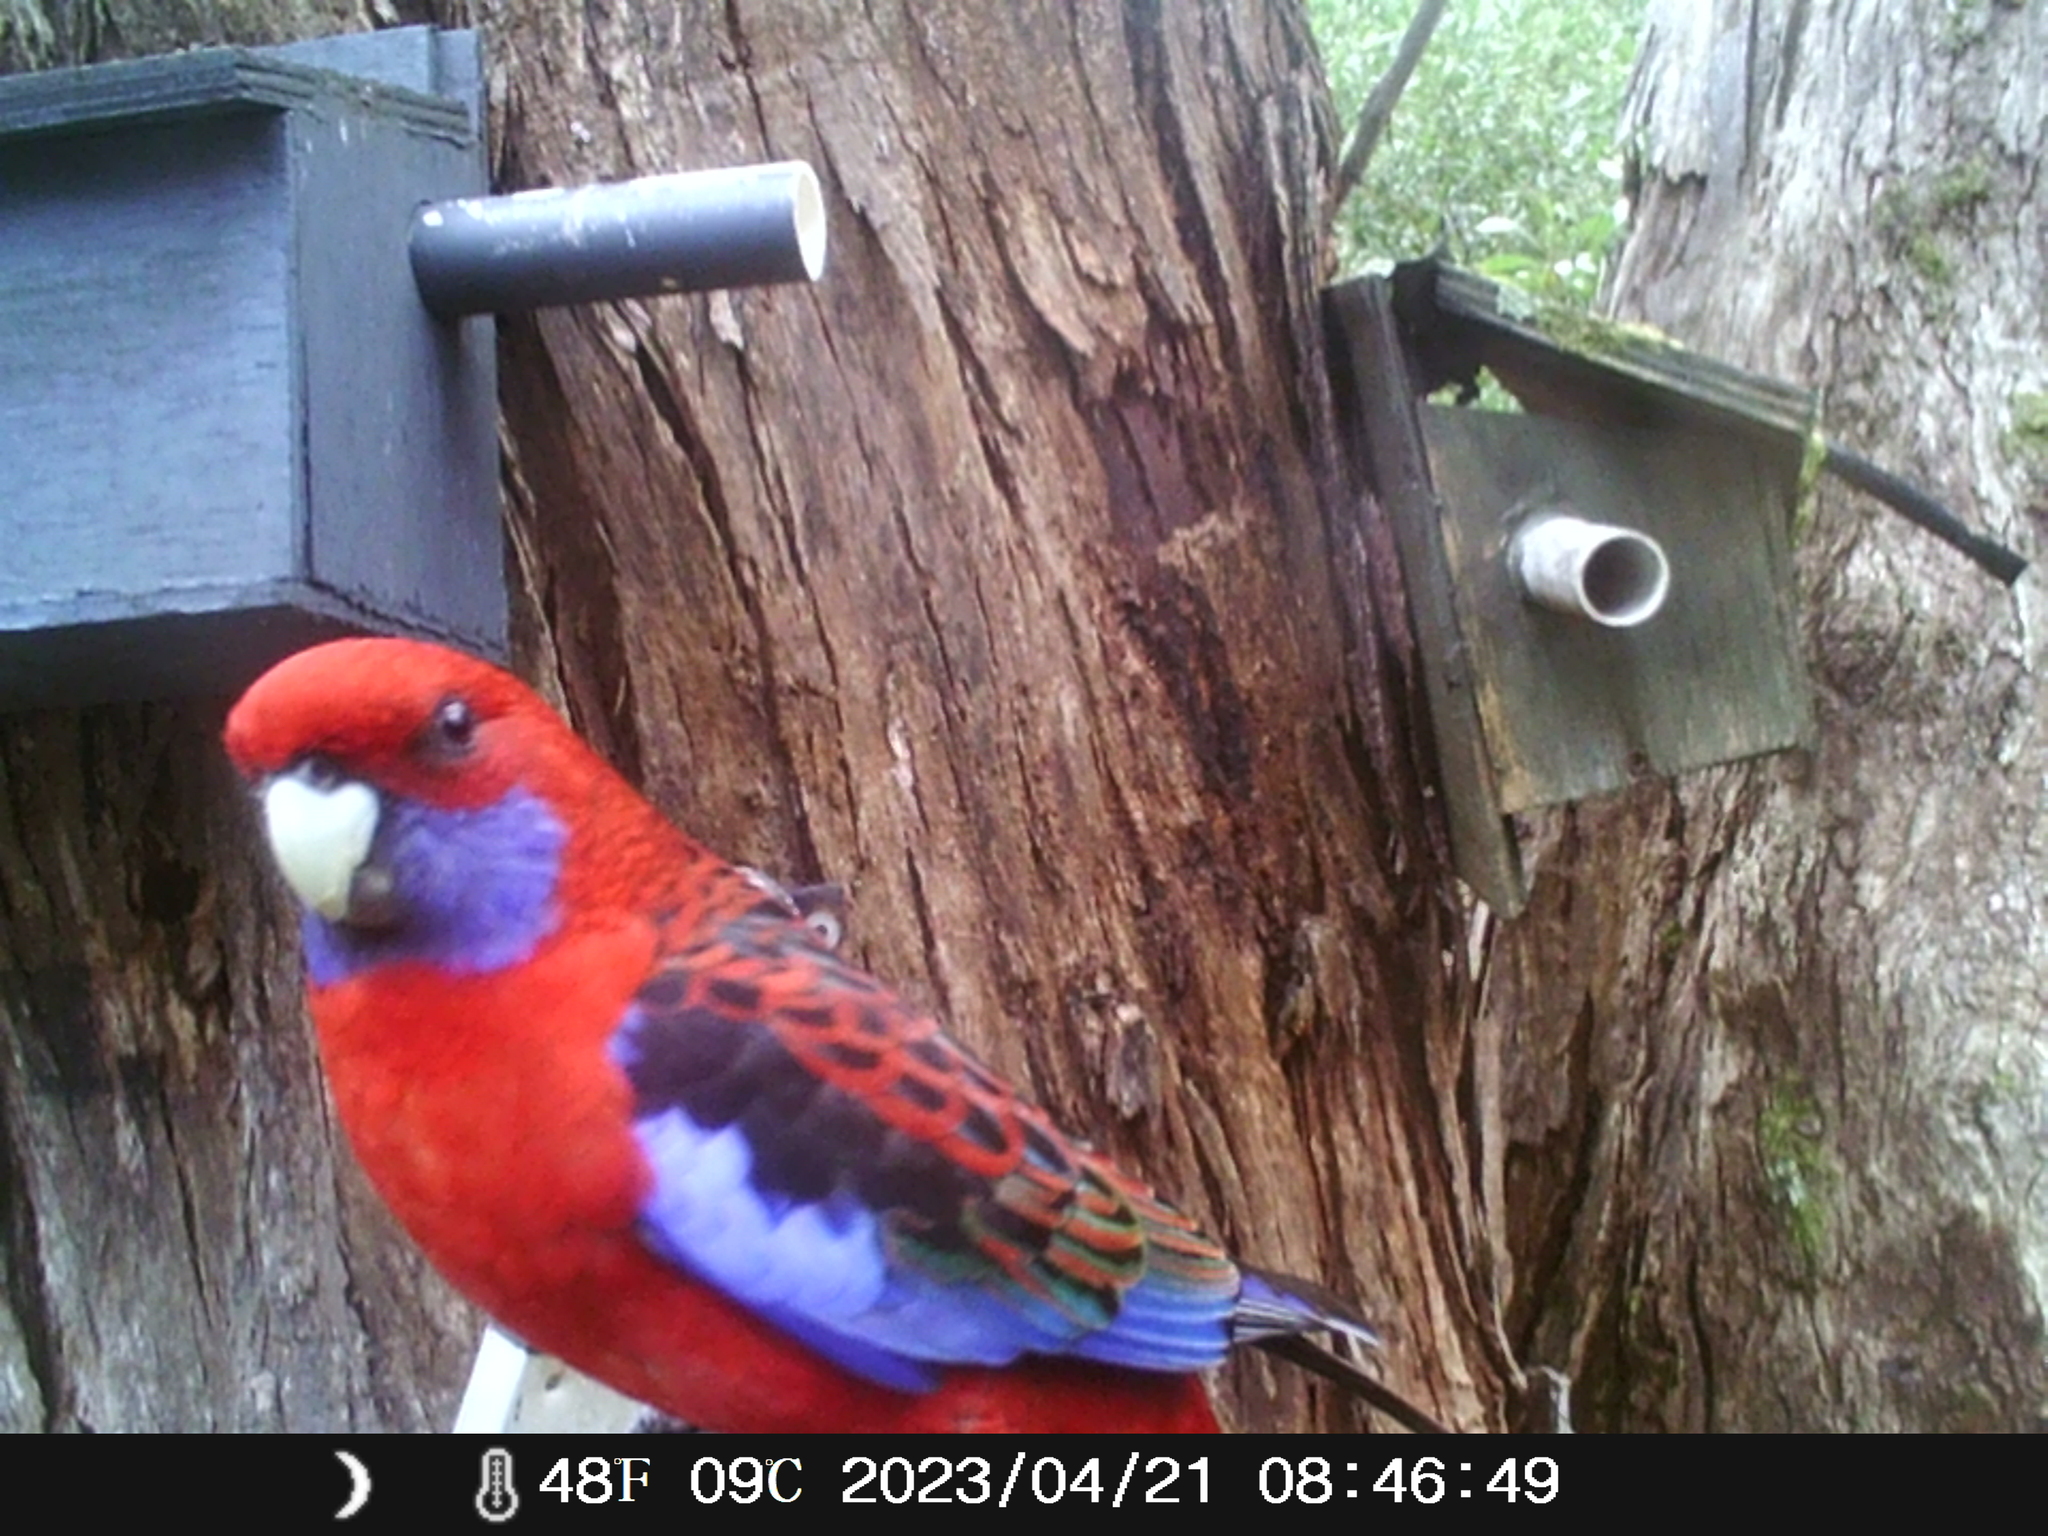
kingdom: Animalia
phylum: Chordata
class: Aves
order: Psittaciformes
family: Psittacidae
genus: Platycercus
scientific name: Platycercus elegans
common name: Crimson rosella
